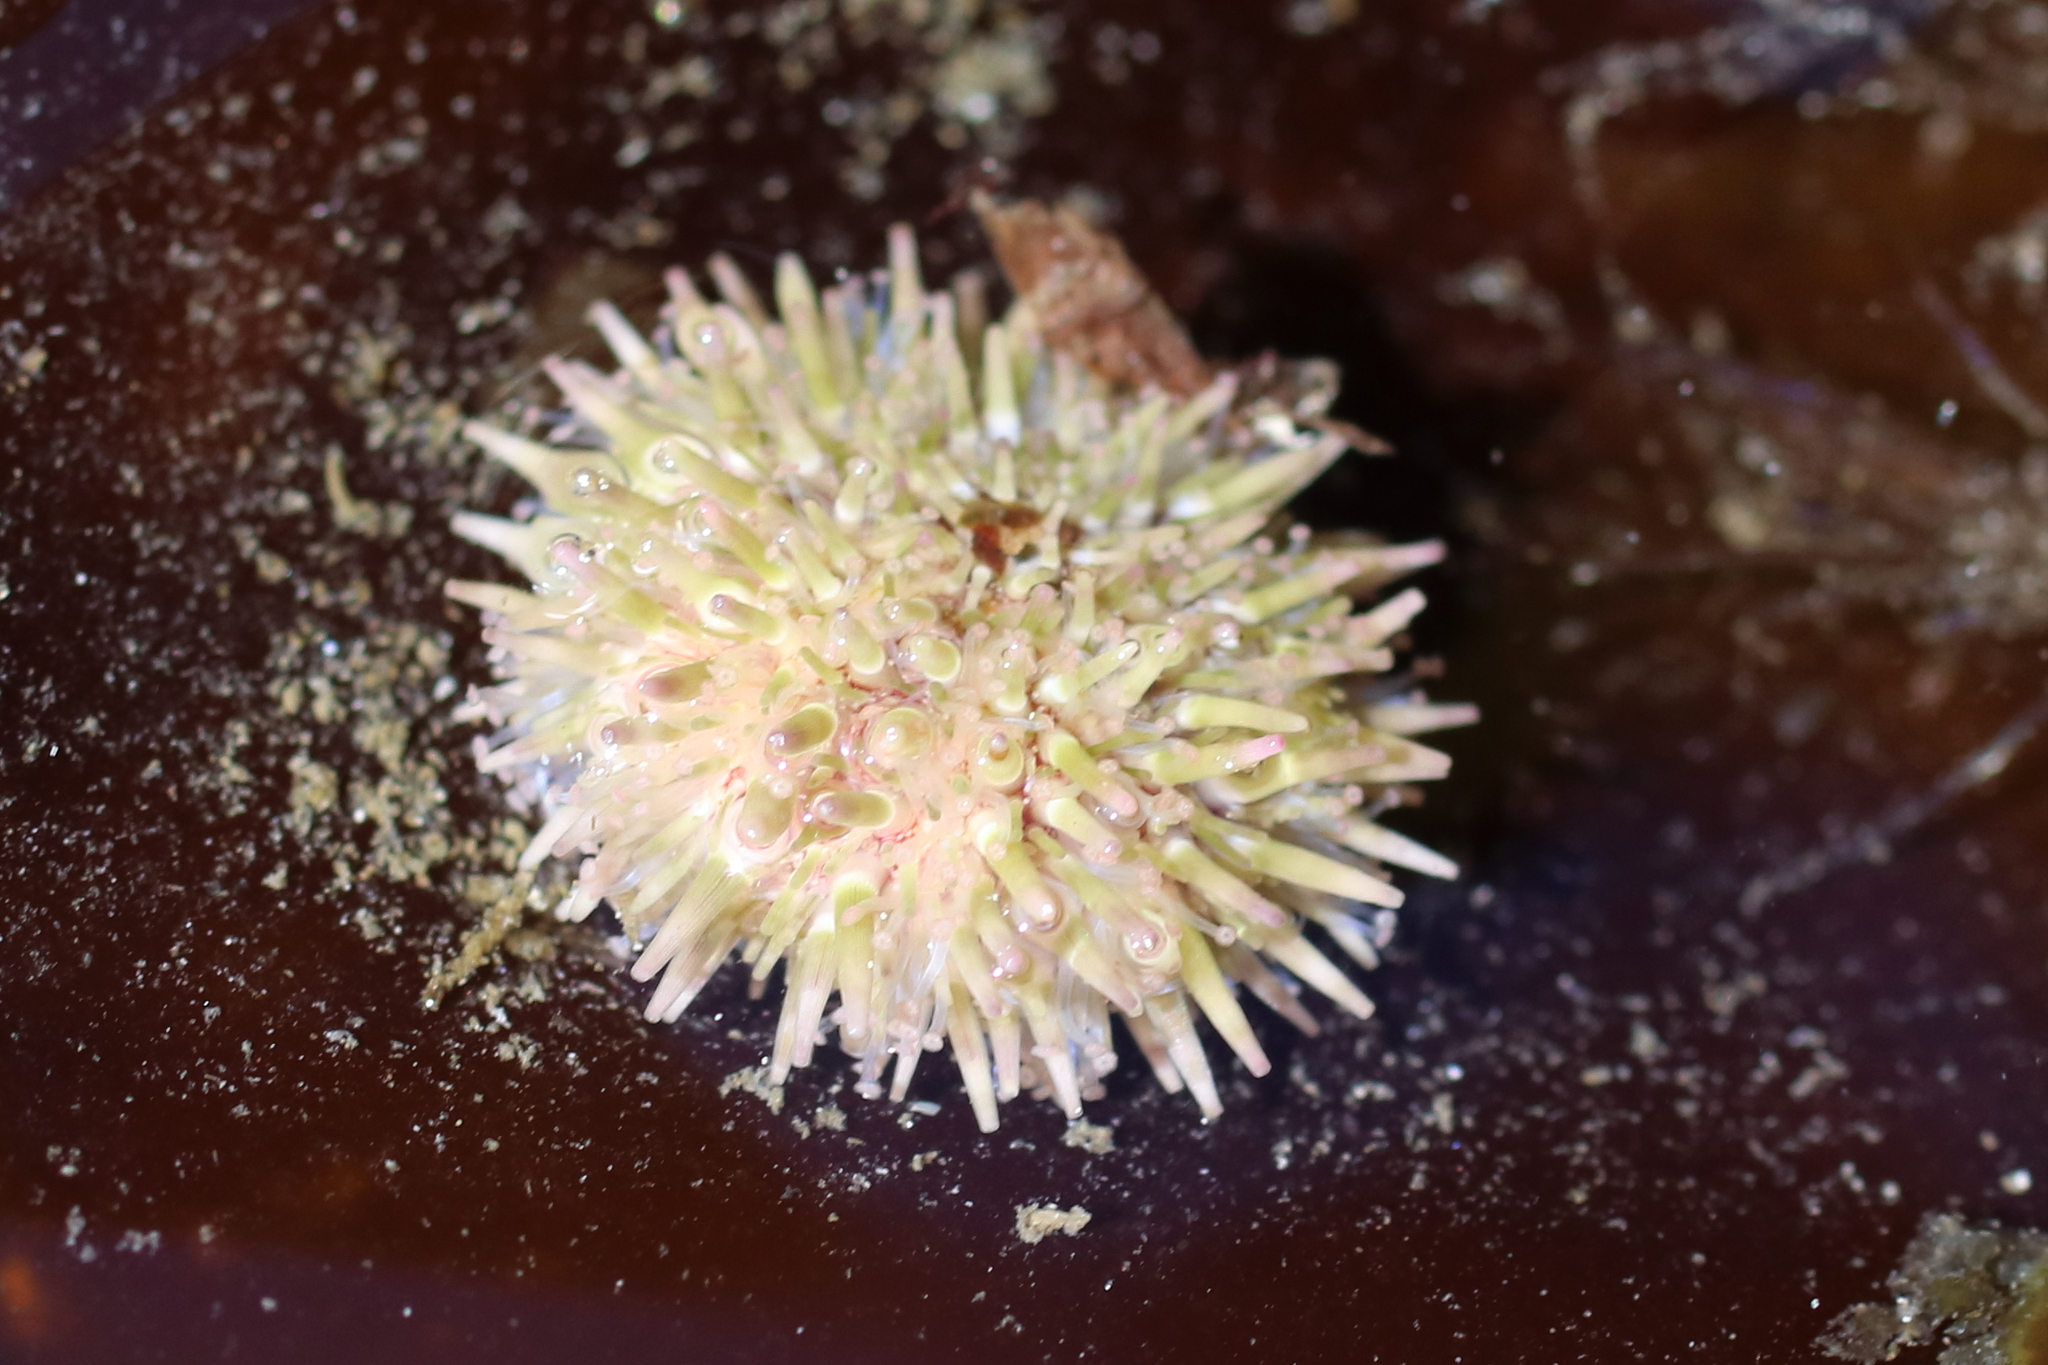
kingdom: Animalia
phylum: Echinodermata
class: Echinoidea
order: Camarodonta
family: Strongylocentrotidae
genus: Strongylocentrotus
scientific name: Strongylocentrotus droebachiensis
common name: Northern sea urchin
